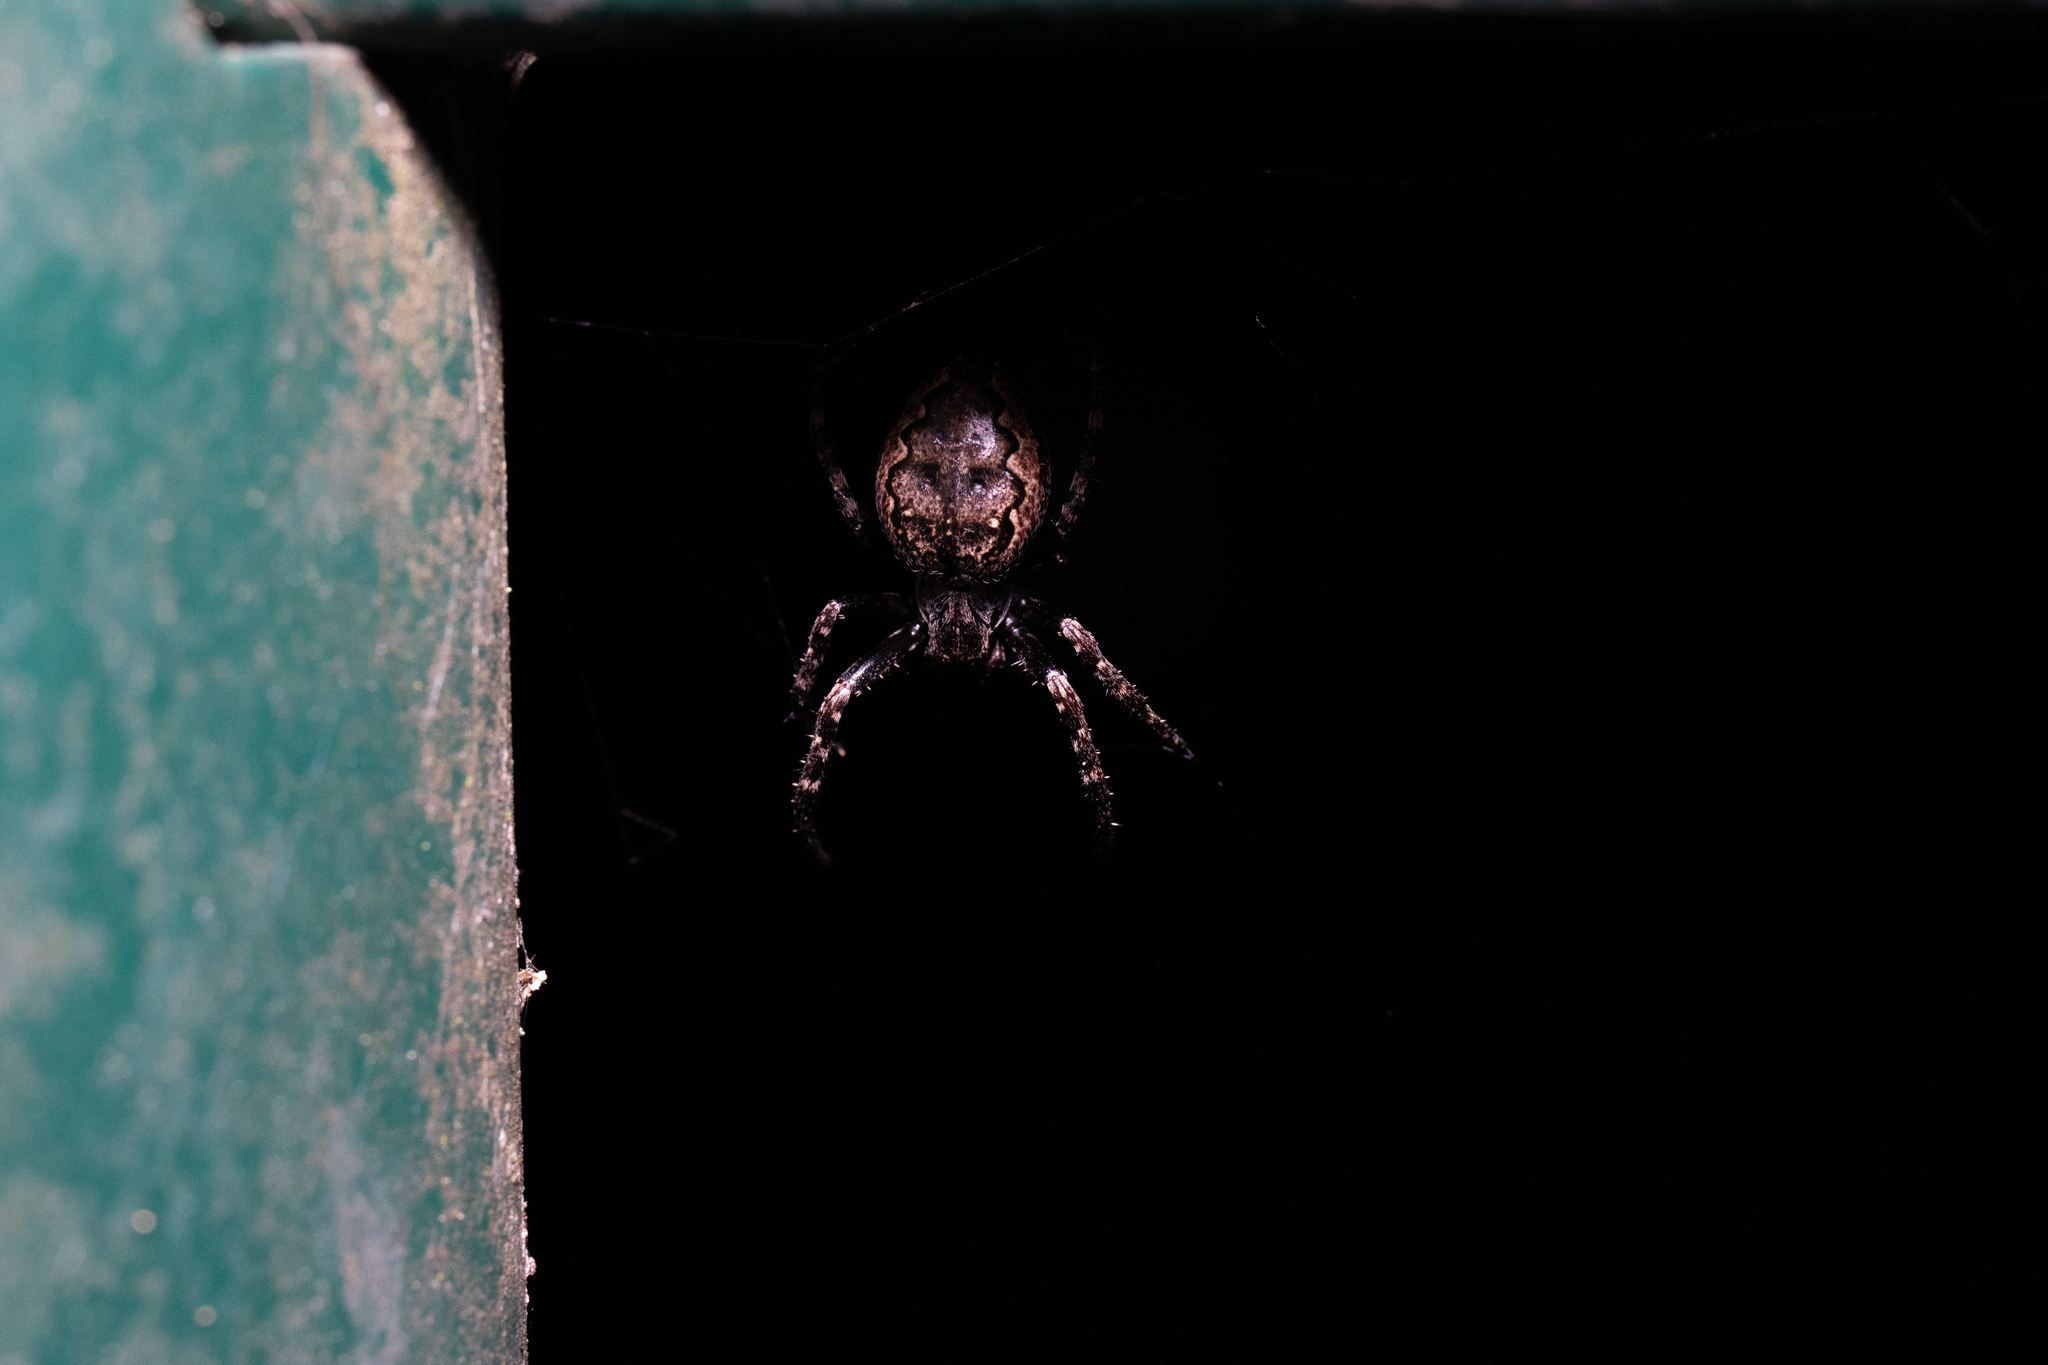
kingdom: Animalia
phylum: Arthropoda
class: Arachnida
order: Araneae
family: Araneidae
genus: Nuctenea
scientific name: Nuctenea umbratica
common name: Toad spider
